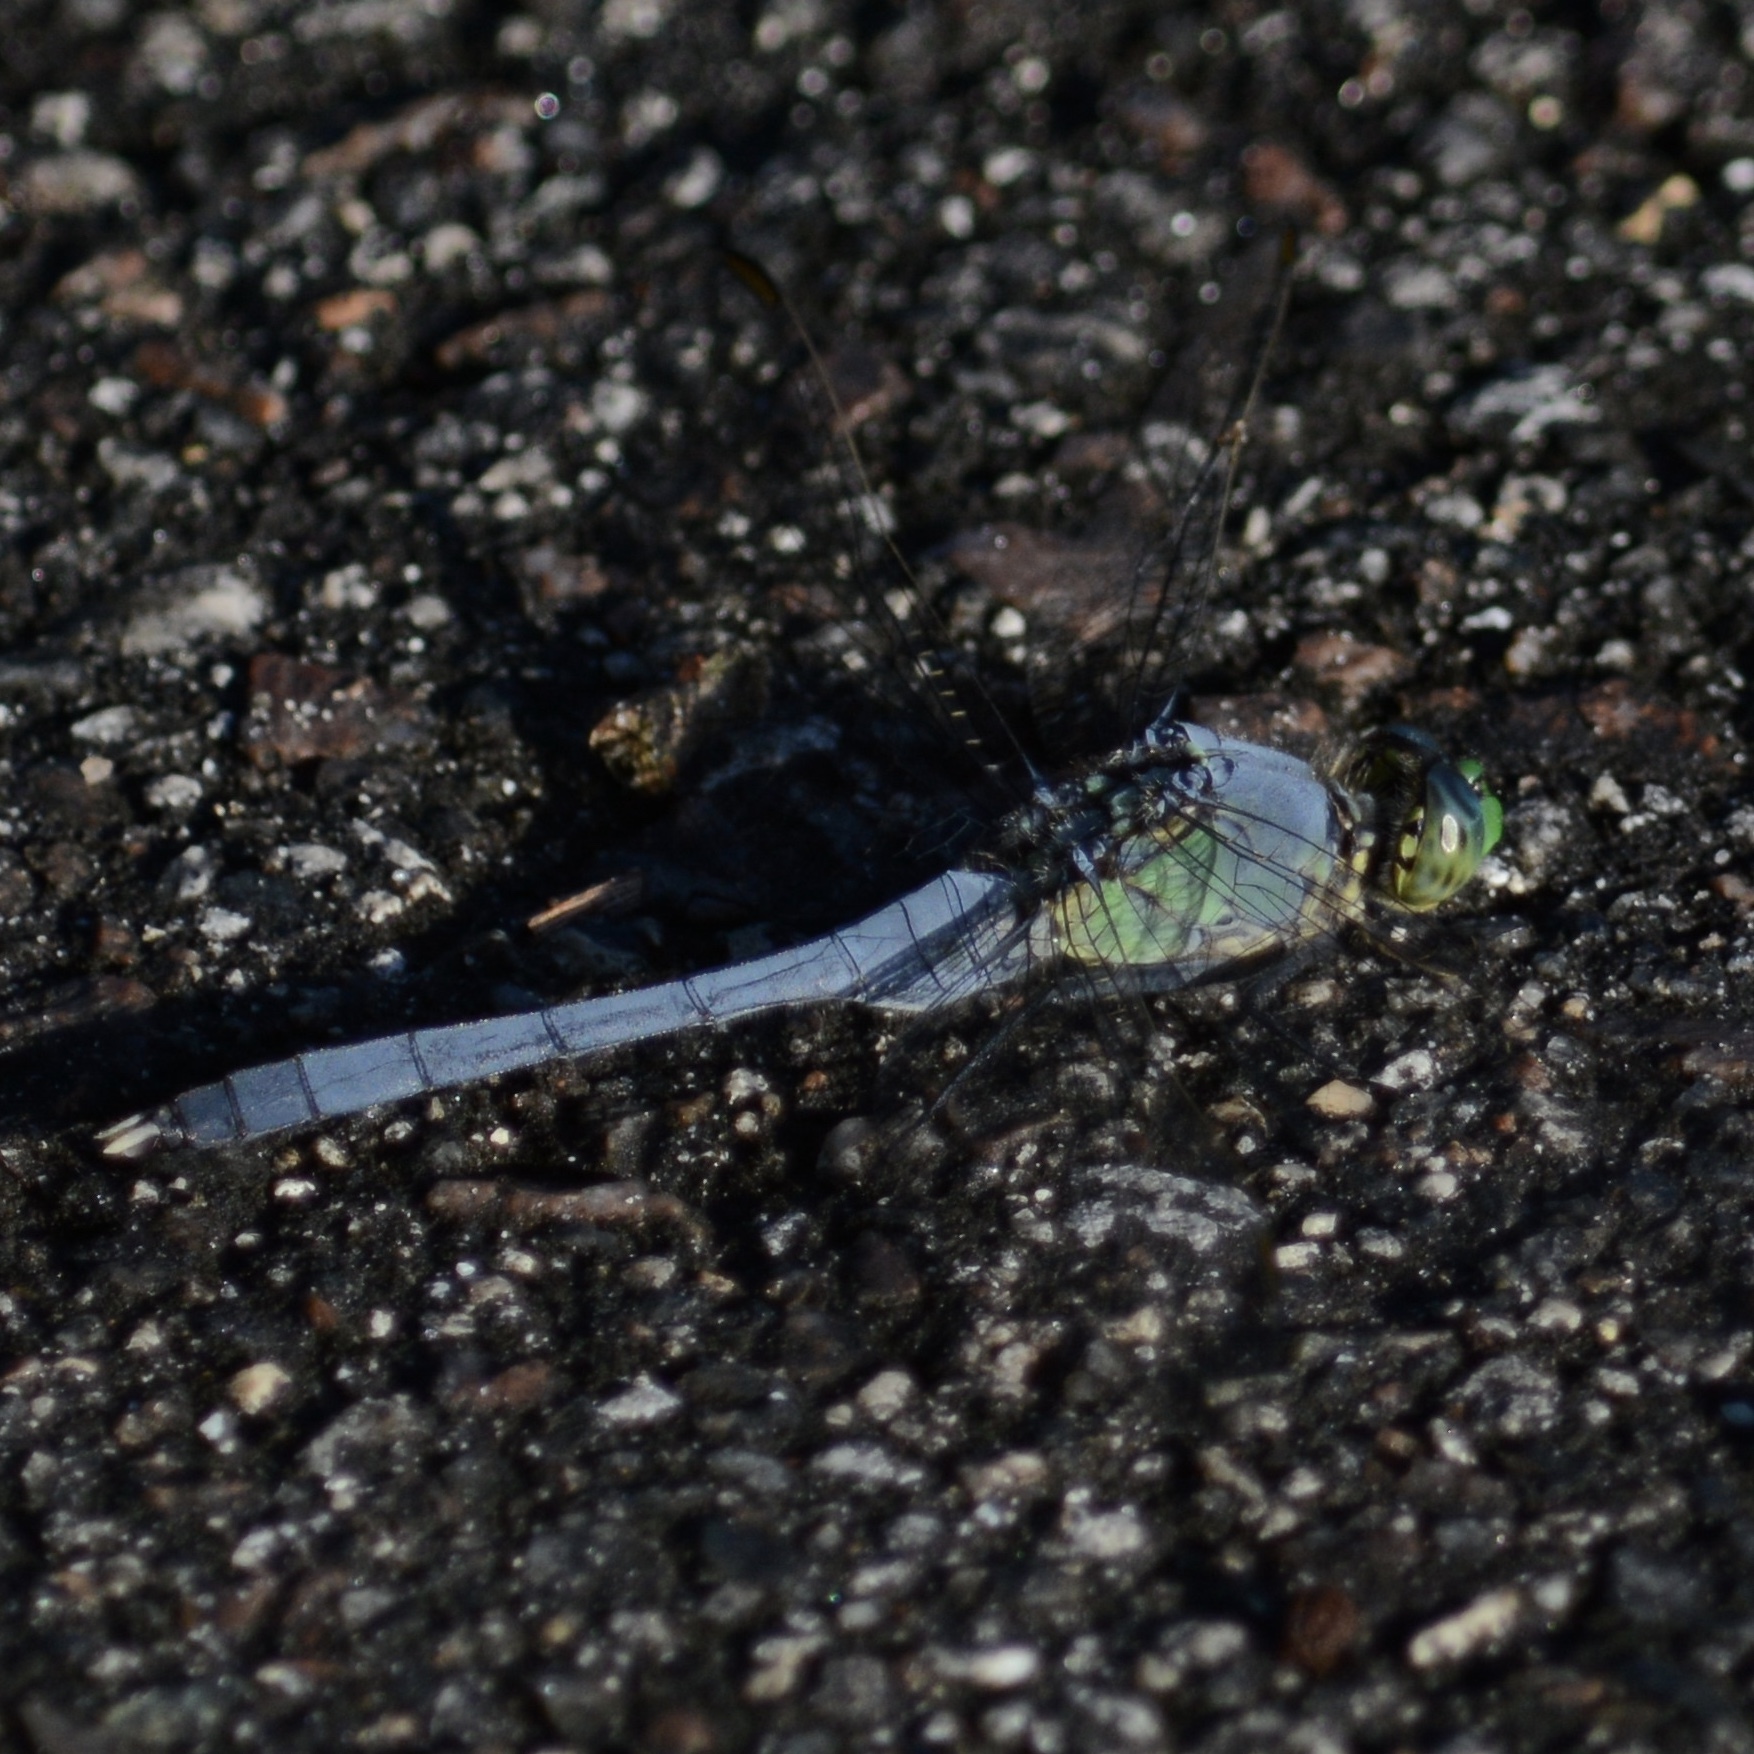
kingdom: Animalia
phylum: Arthropoda
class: Insecta
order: Odonata
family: Libellulidae
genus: Erythemis
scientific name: Erythemis simplicicollis
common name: Eastern pondhawk
